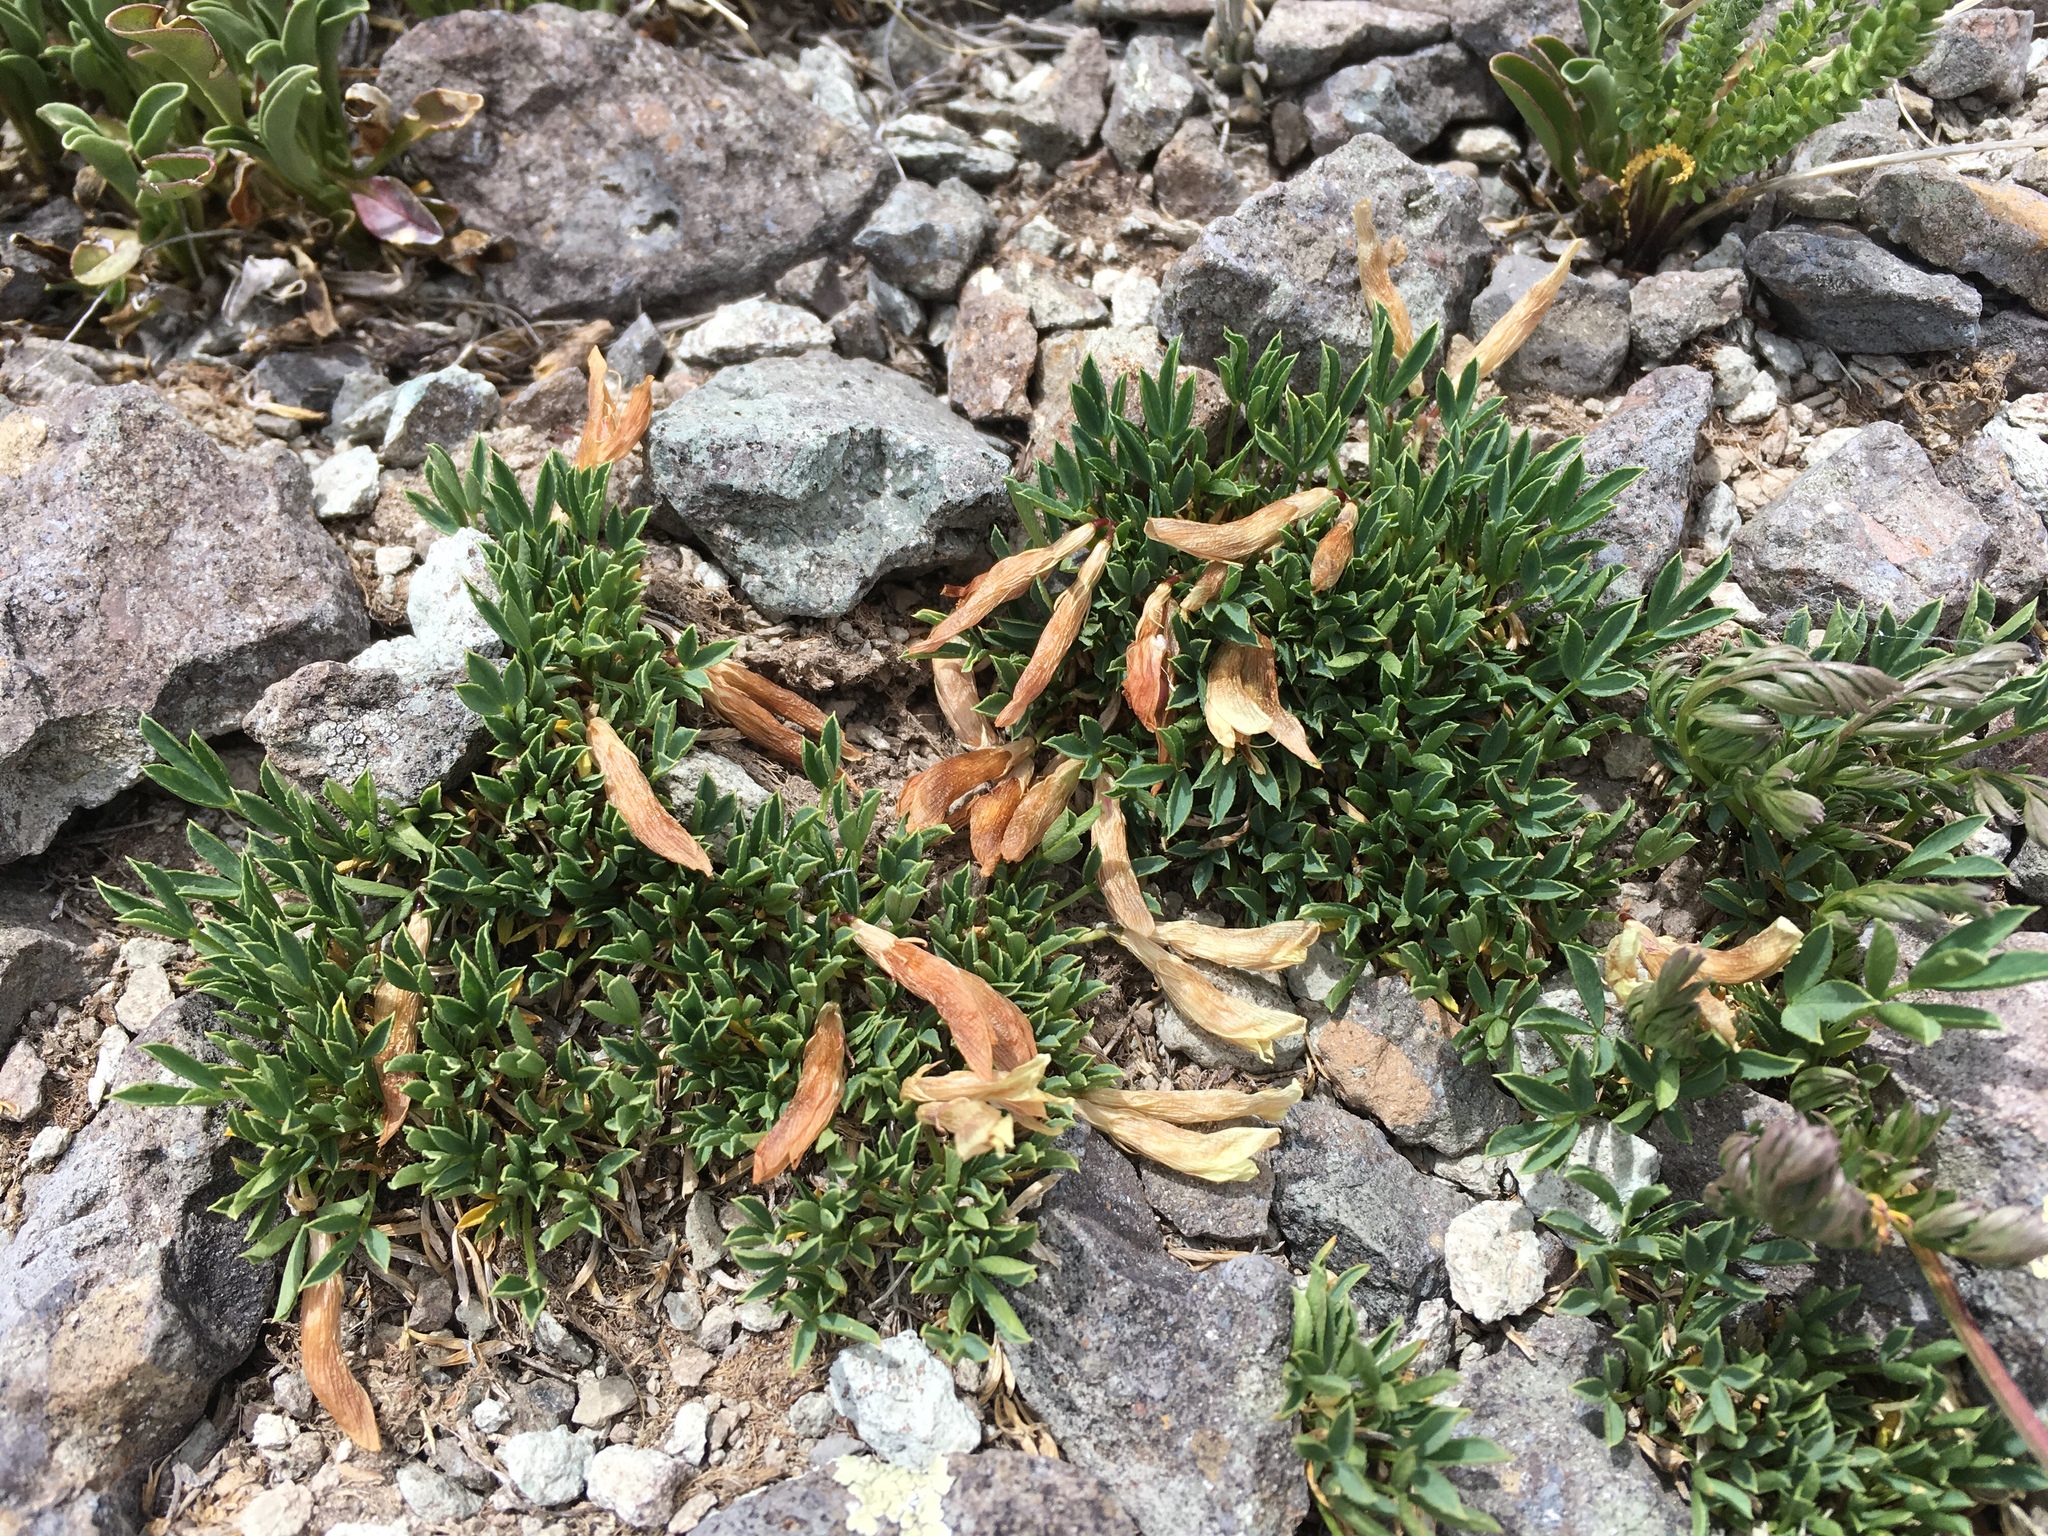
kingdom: Plantae
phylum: Tracheophyta
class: Magnoliopsida
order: Fabales
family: Fabaceae
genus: Trifolium
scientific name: Trifolium nanum
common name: Tundra clover
